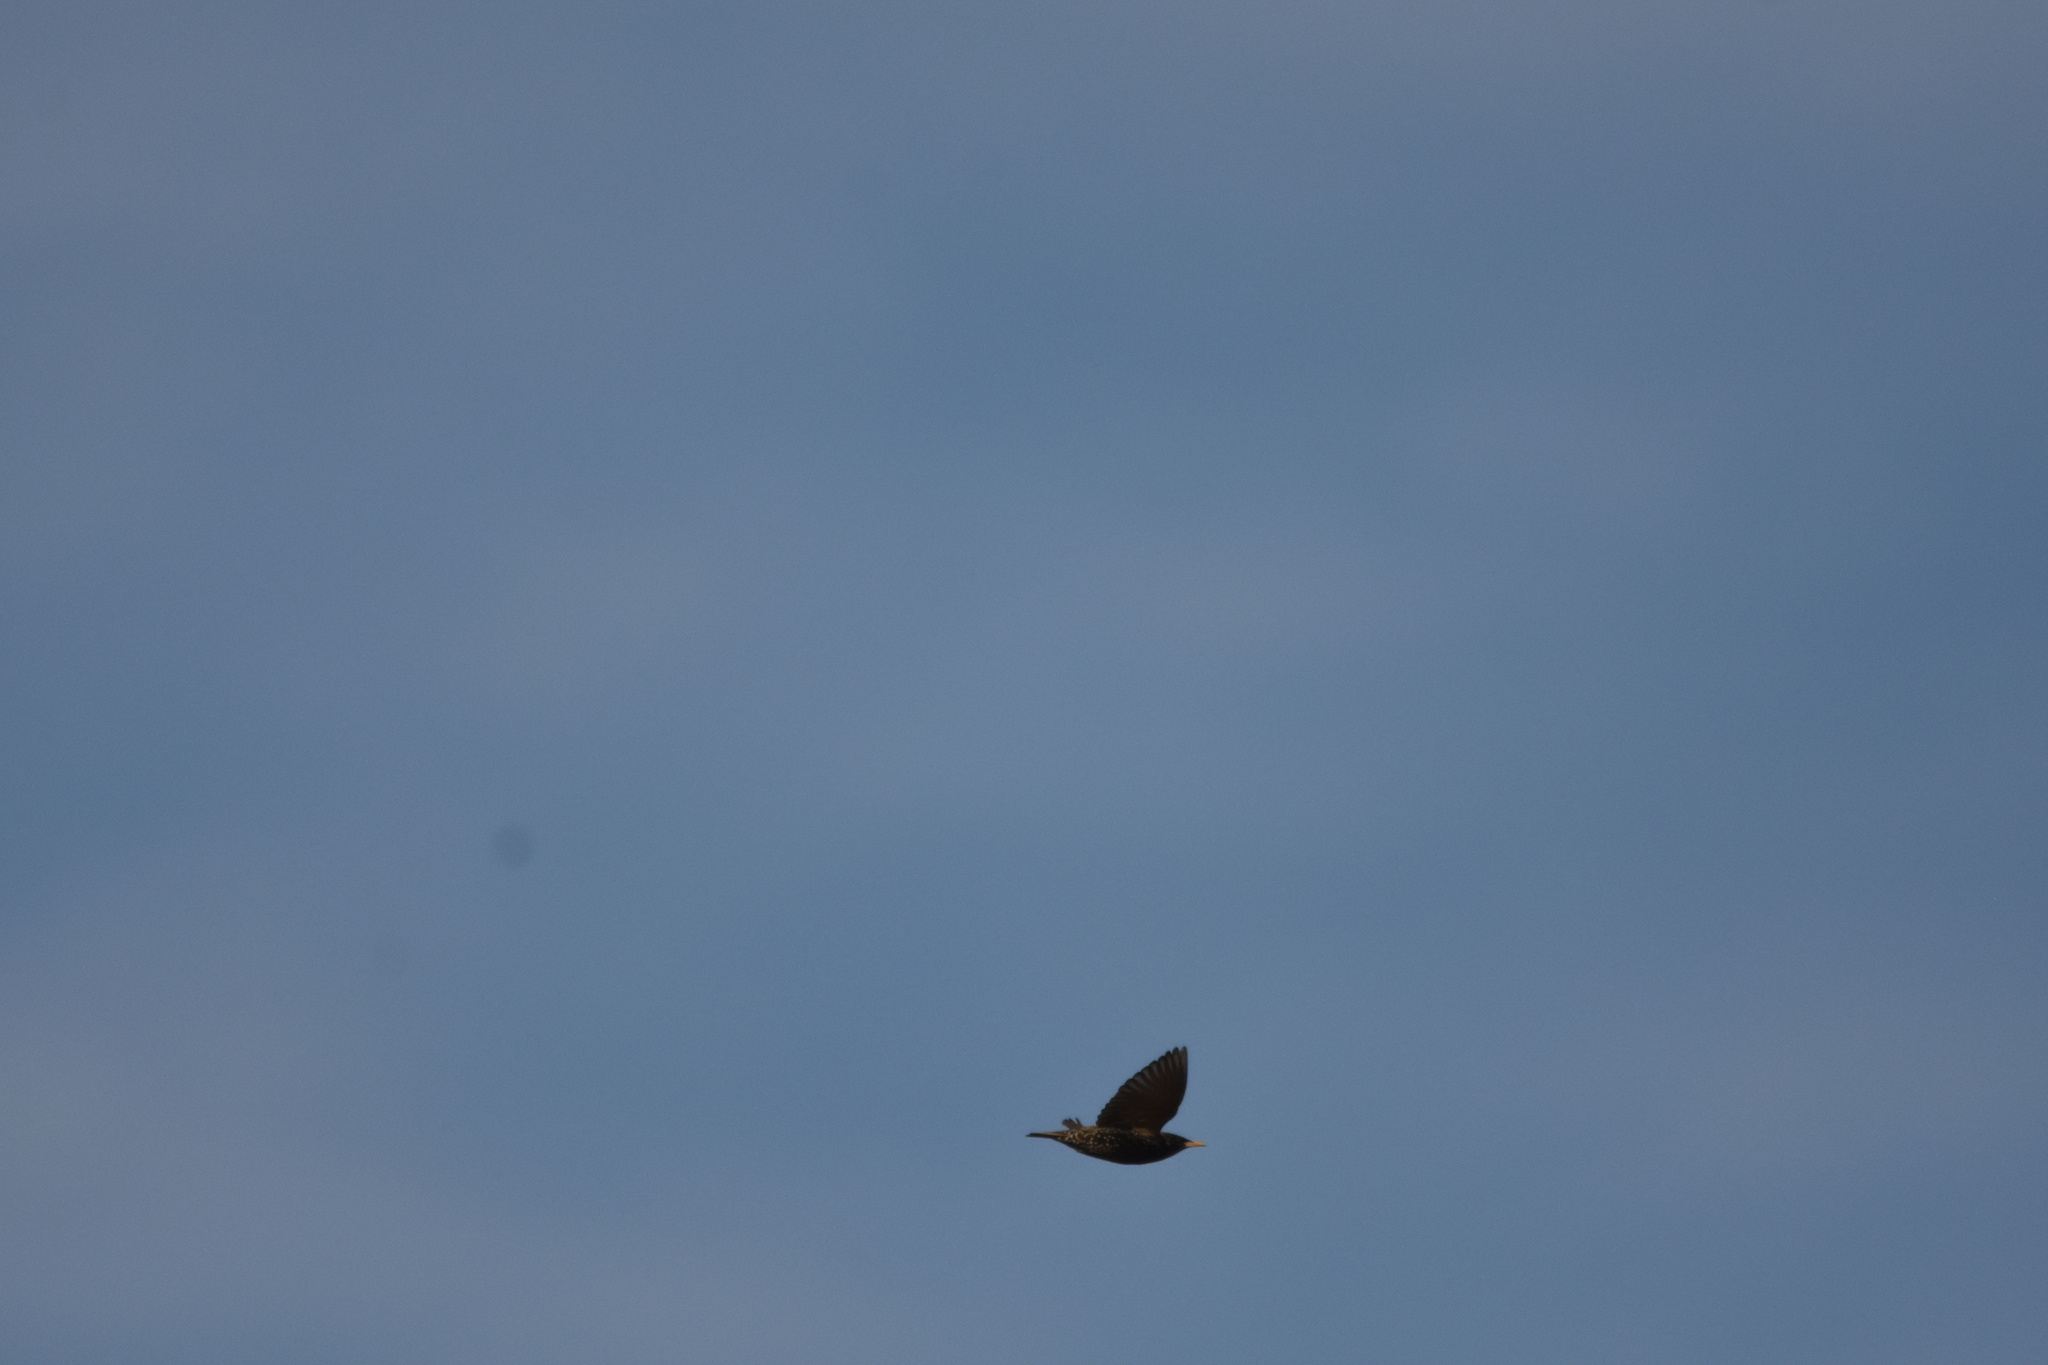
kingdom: Animalia
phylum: Chordata
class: Aves
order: Passeriformes
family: Sturnidae
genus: Sturnus
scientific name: Sturnus vulgaris
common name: Common starling
